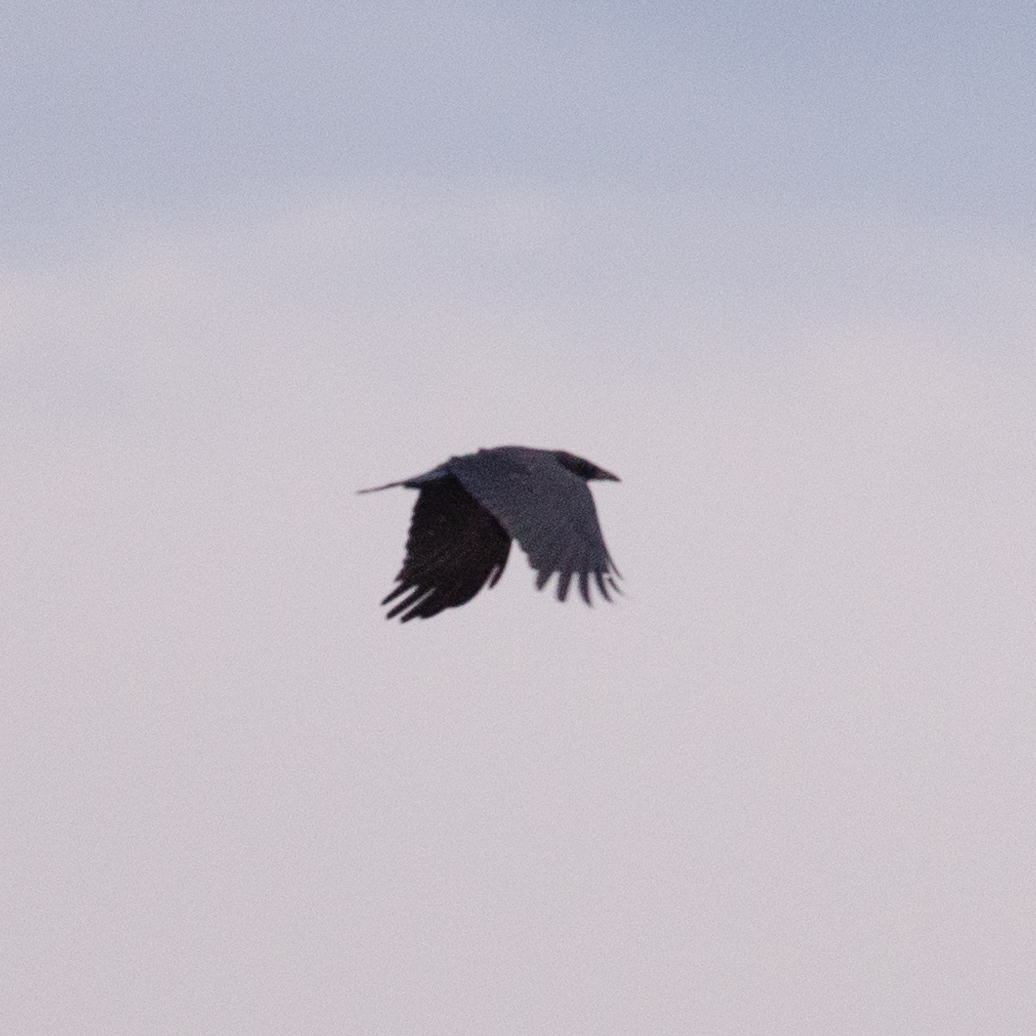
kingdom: Animalia
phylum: Chordata
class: Aves
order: Passeriformes
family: Corvidae
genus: Corvus
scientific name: Corvus corone
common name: Carrion crow
